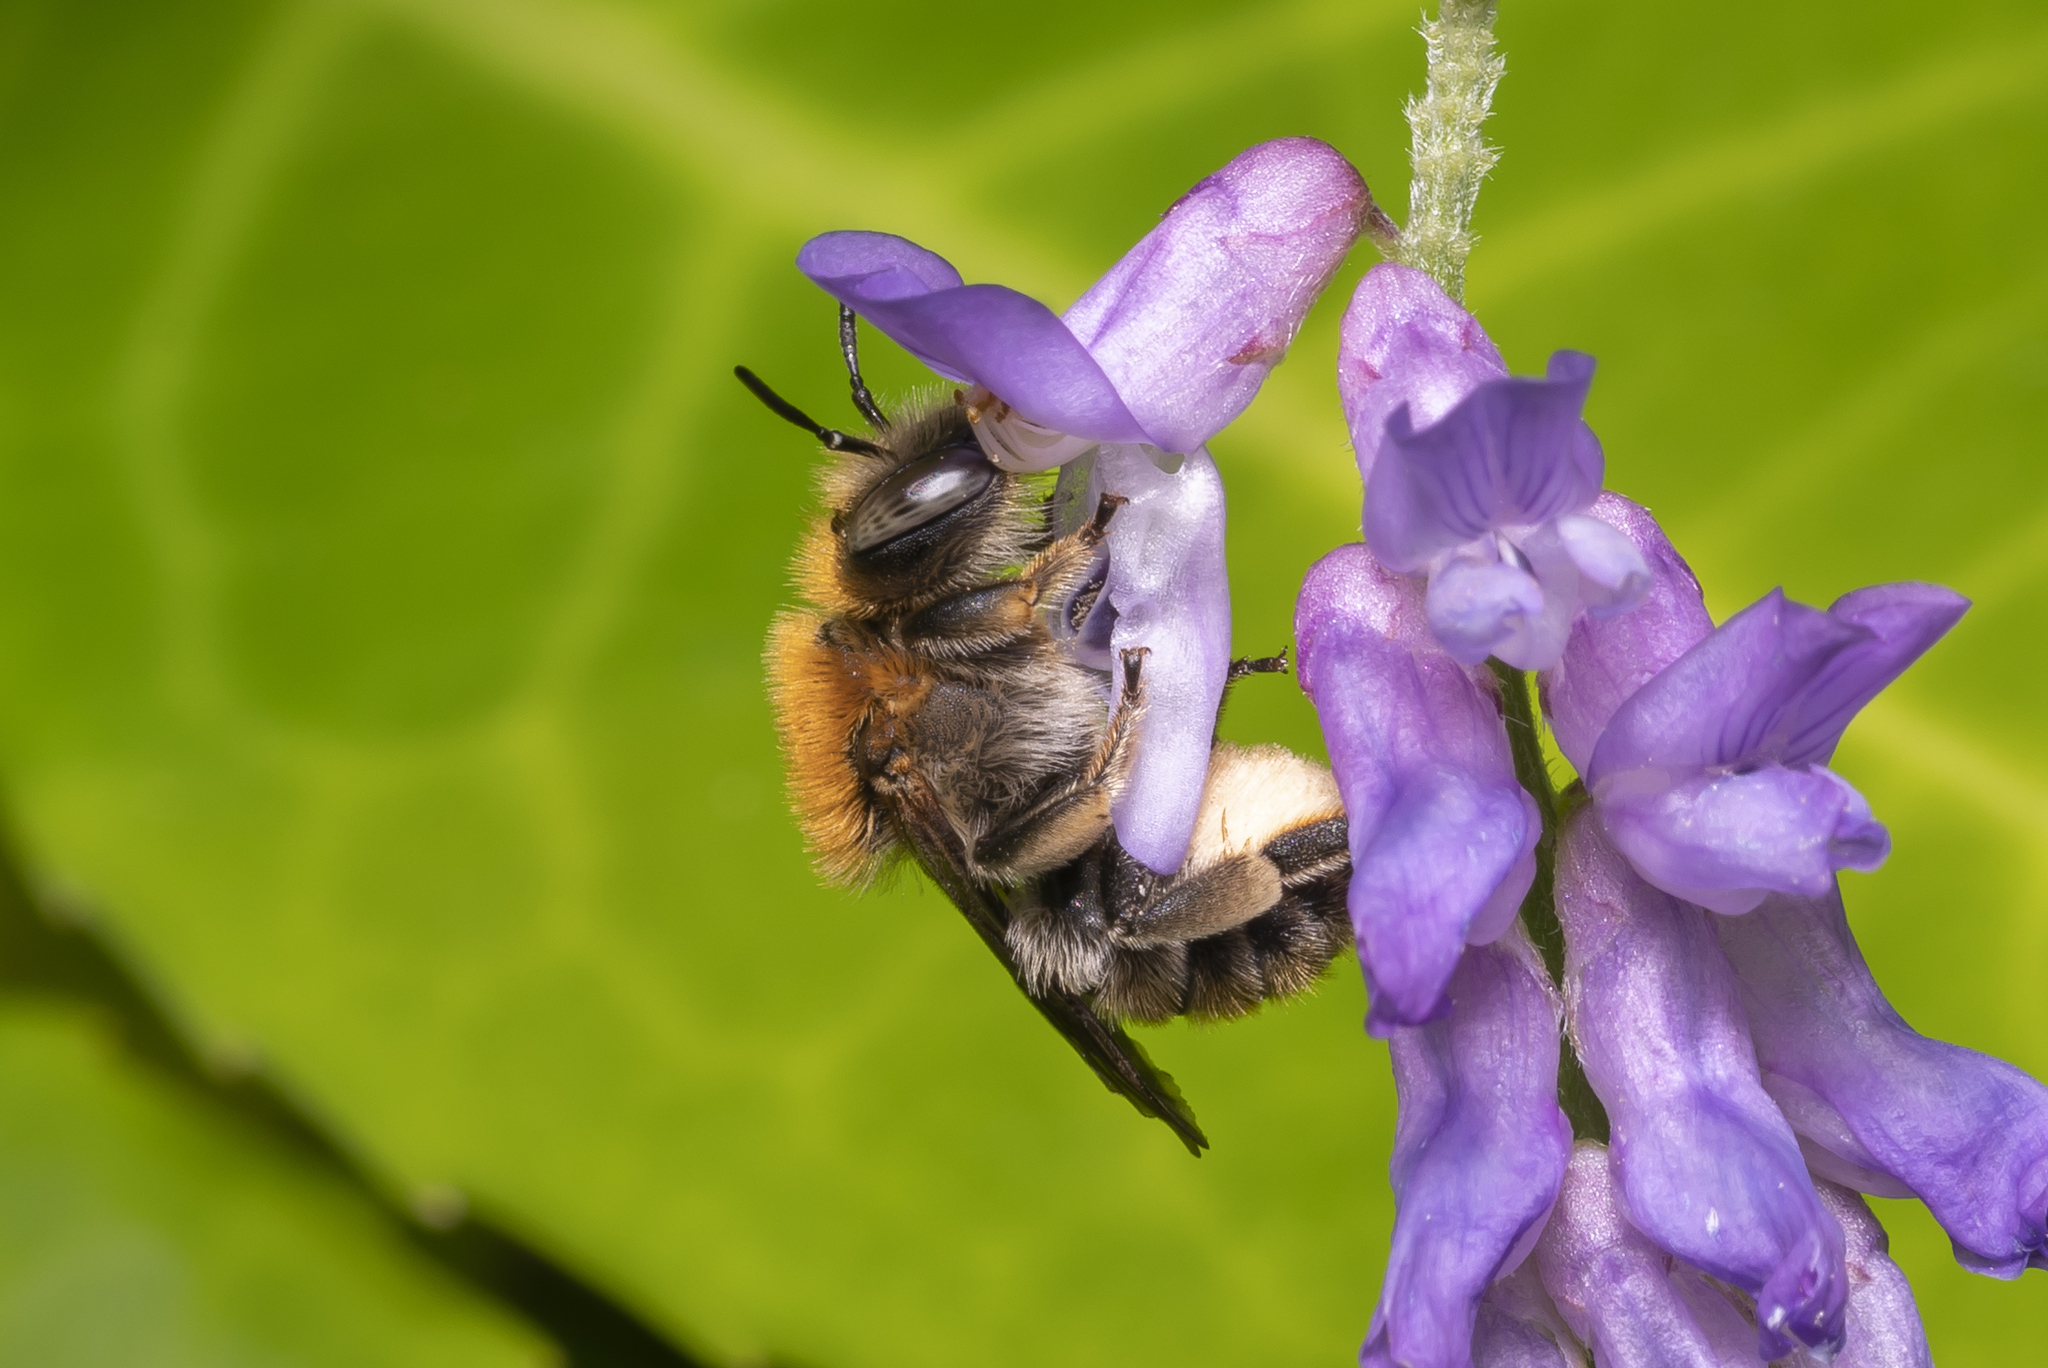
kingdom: Animalia
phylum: Arthropoda
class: Insecta
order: Hymenoptera
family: Megachilidae
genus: Trachusa
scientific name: Trachusa byssina
